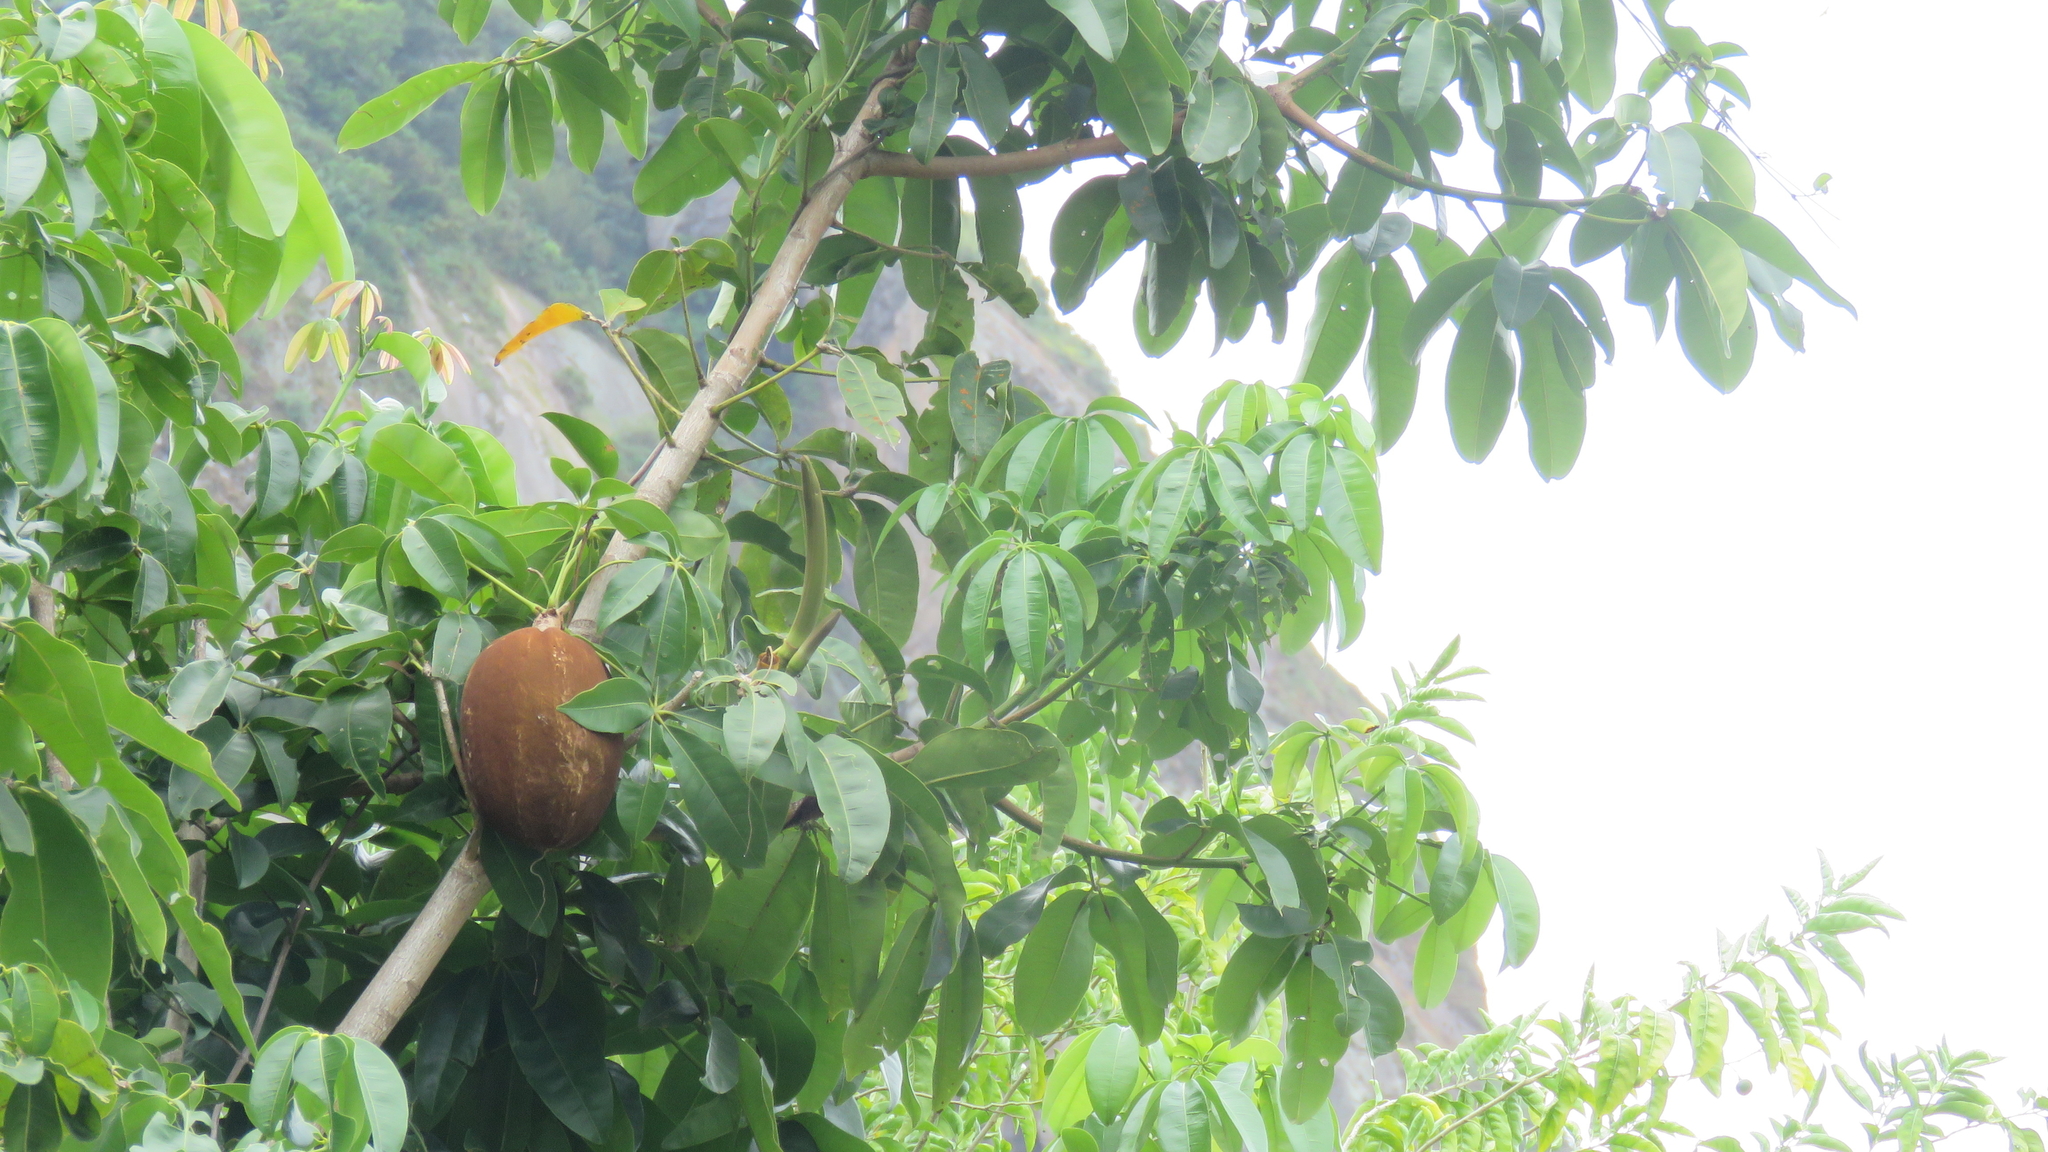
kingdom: Plantae
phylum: Tracheophyta
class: Magnoliopsida
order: Malvales
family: Malvaceae
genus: Pachira
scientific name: Pachira aquatica
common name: Provision-tree
